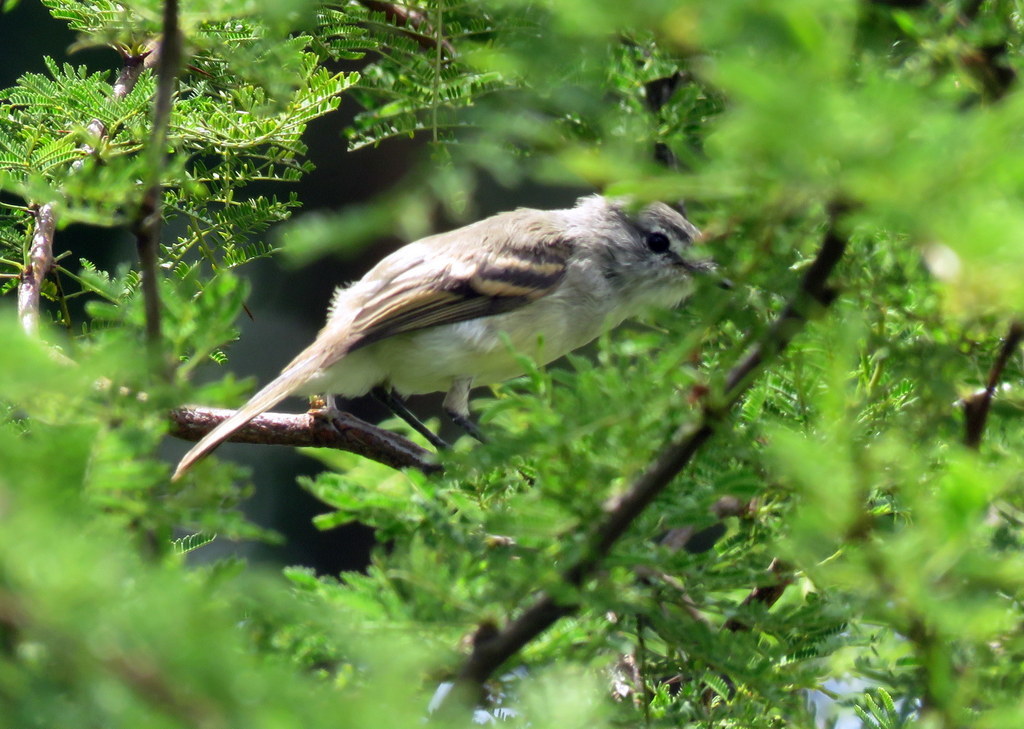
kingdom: Animalia
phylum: Chordata
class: Aves
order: Passeriformes
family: Tyrannidae
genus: Camptostoma
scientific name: Camptostoma obsoletum
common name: Southern beardless-tyrannulet
